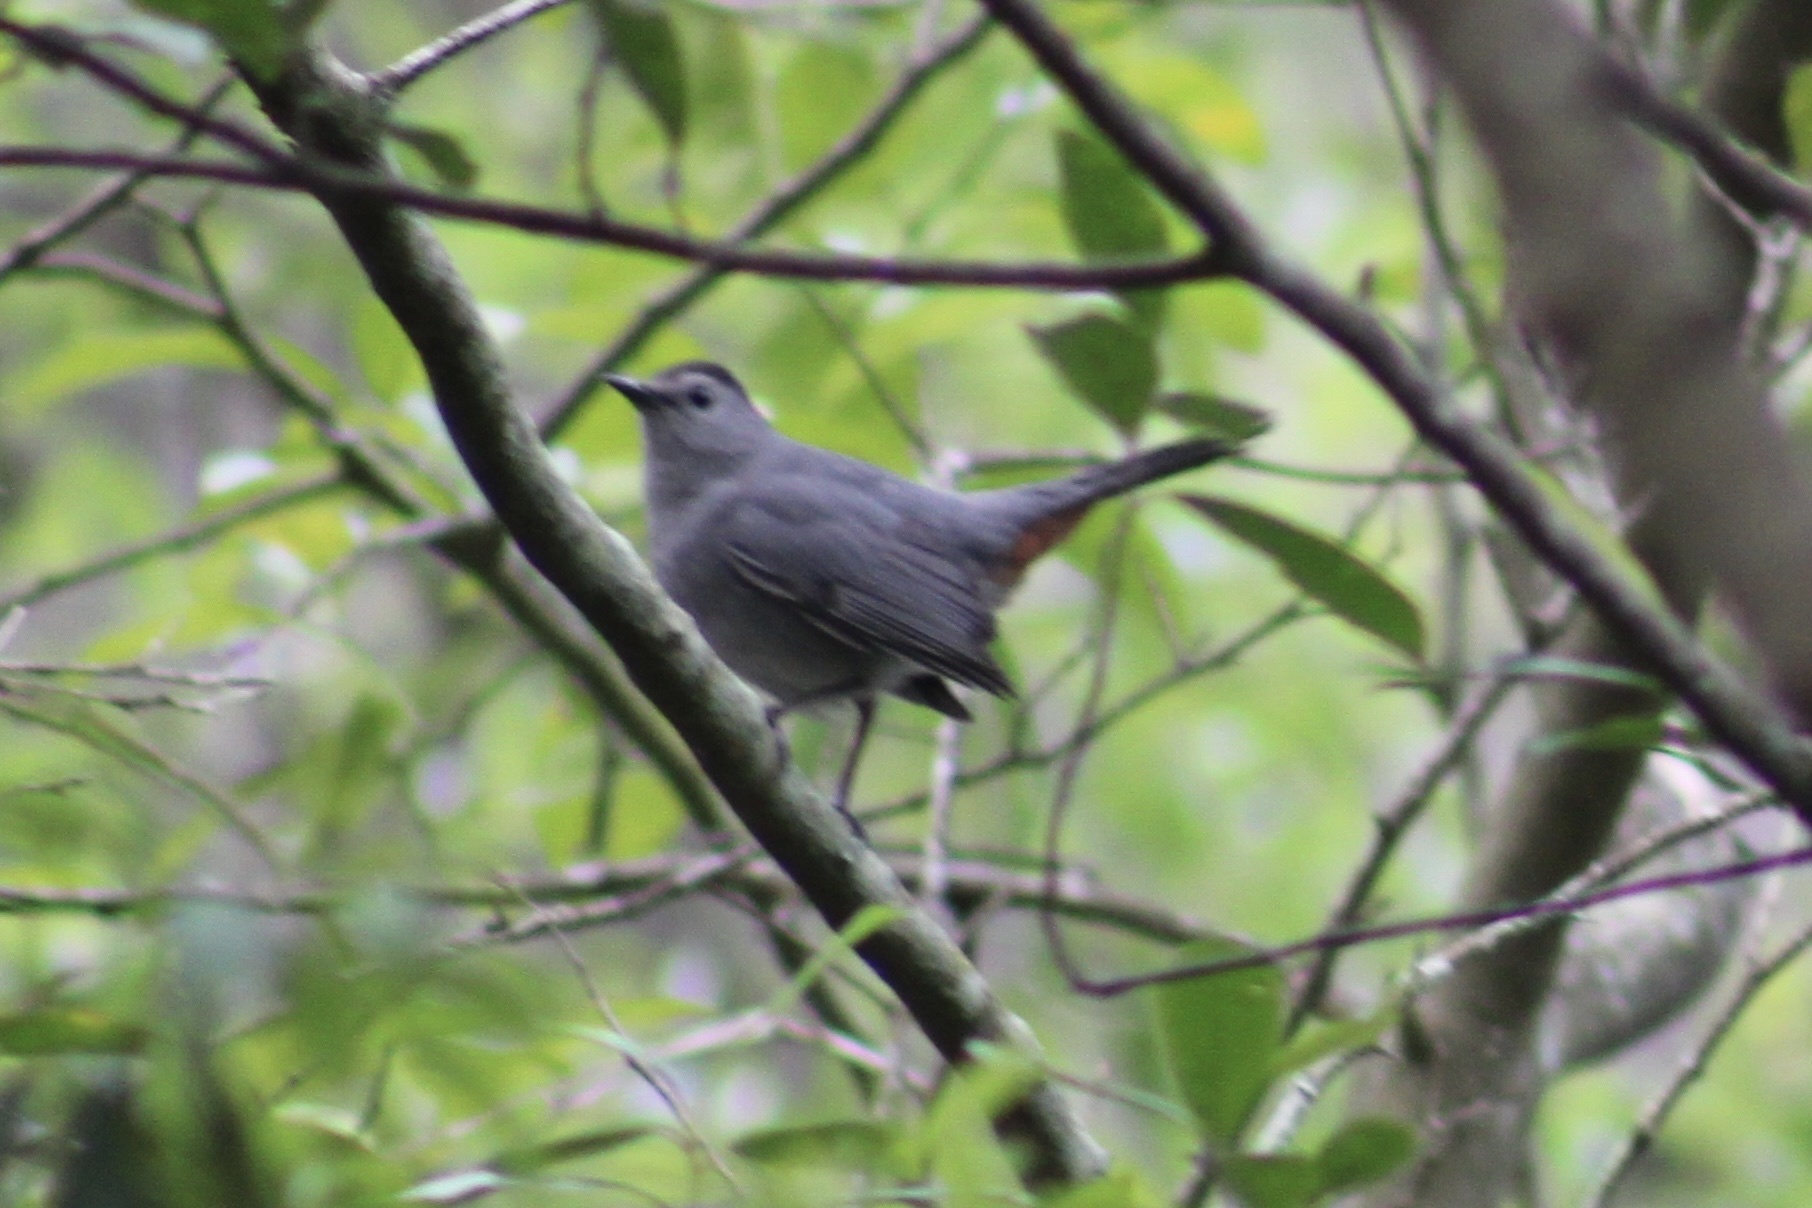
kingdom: Animalia
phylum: Chordata
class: Aves
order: Passeriformes
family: Mimidae
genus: Dumetella
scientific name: Dumetella carolinensis
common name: Gray catbird
